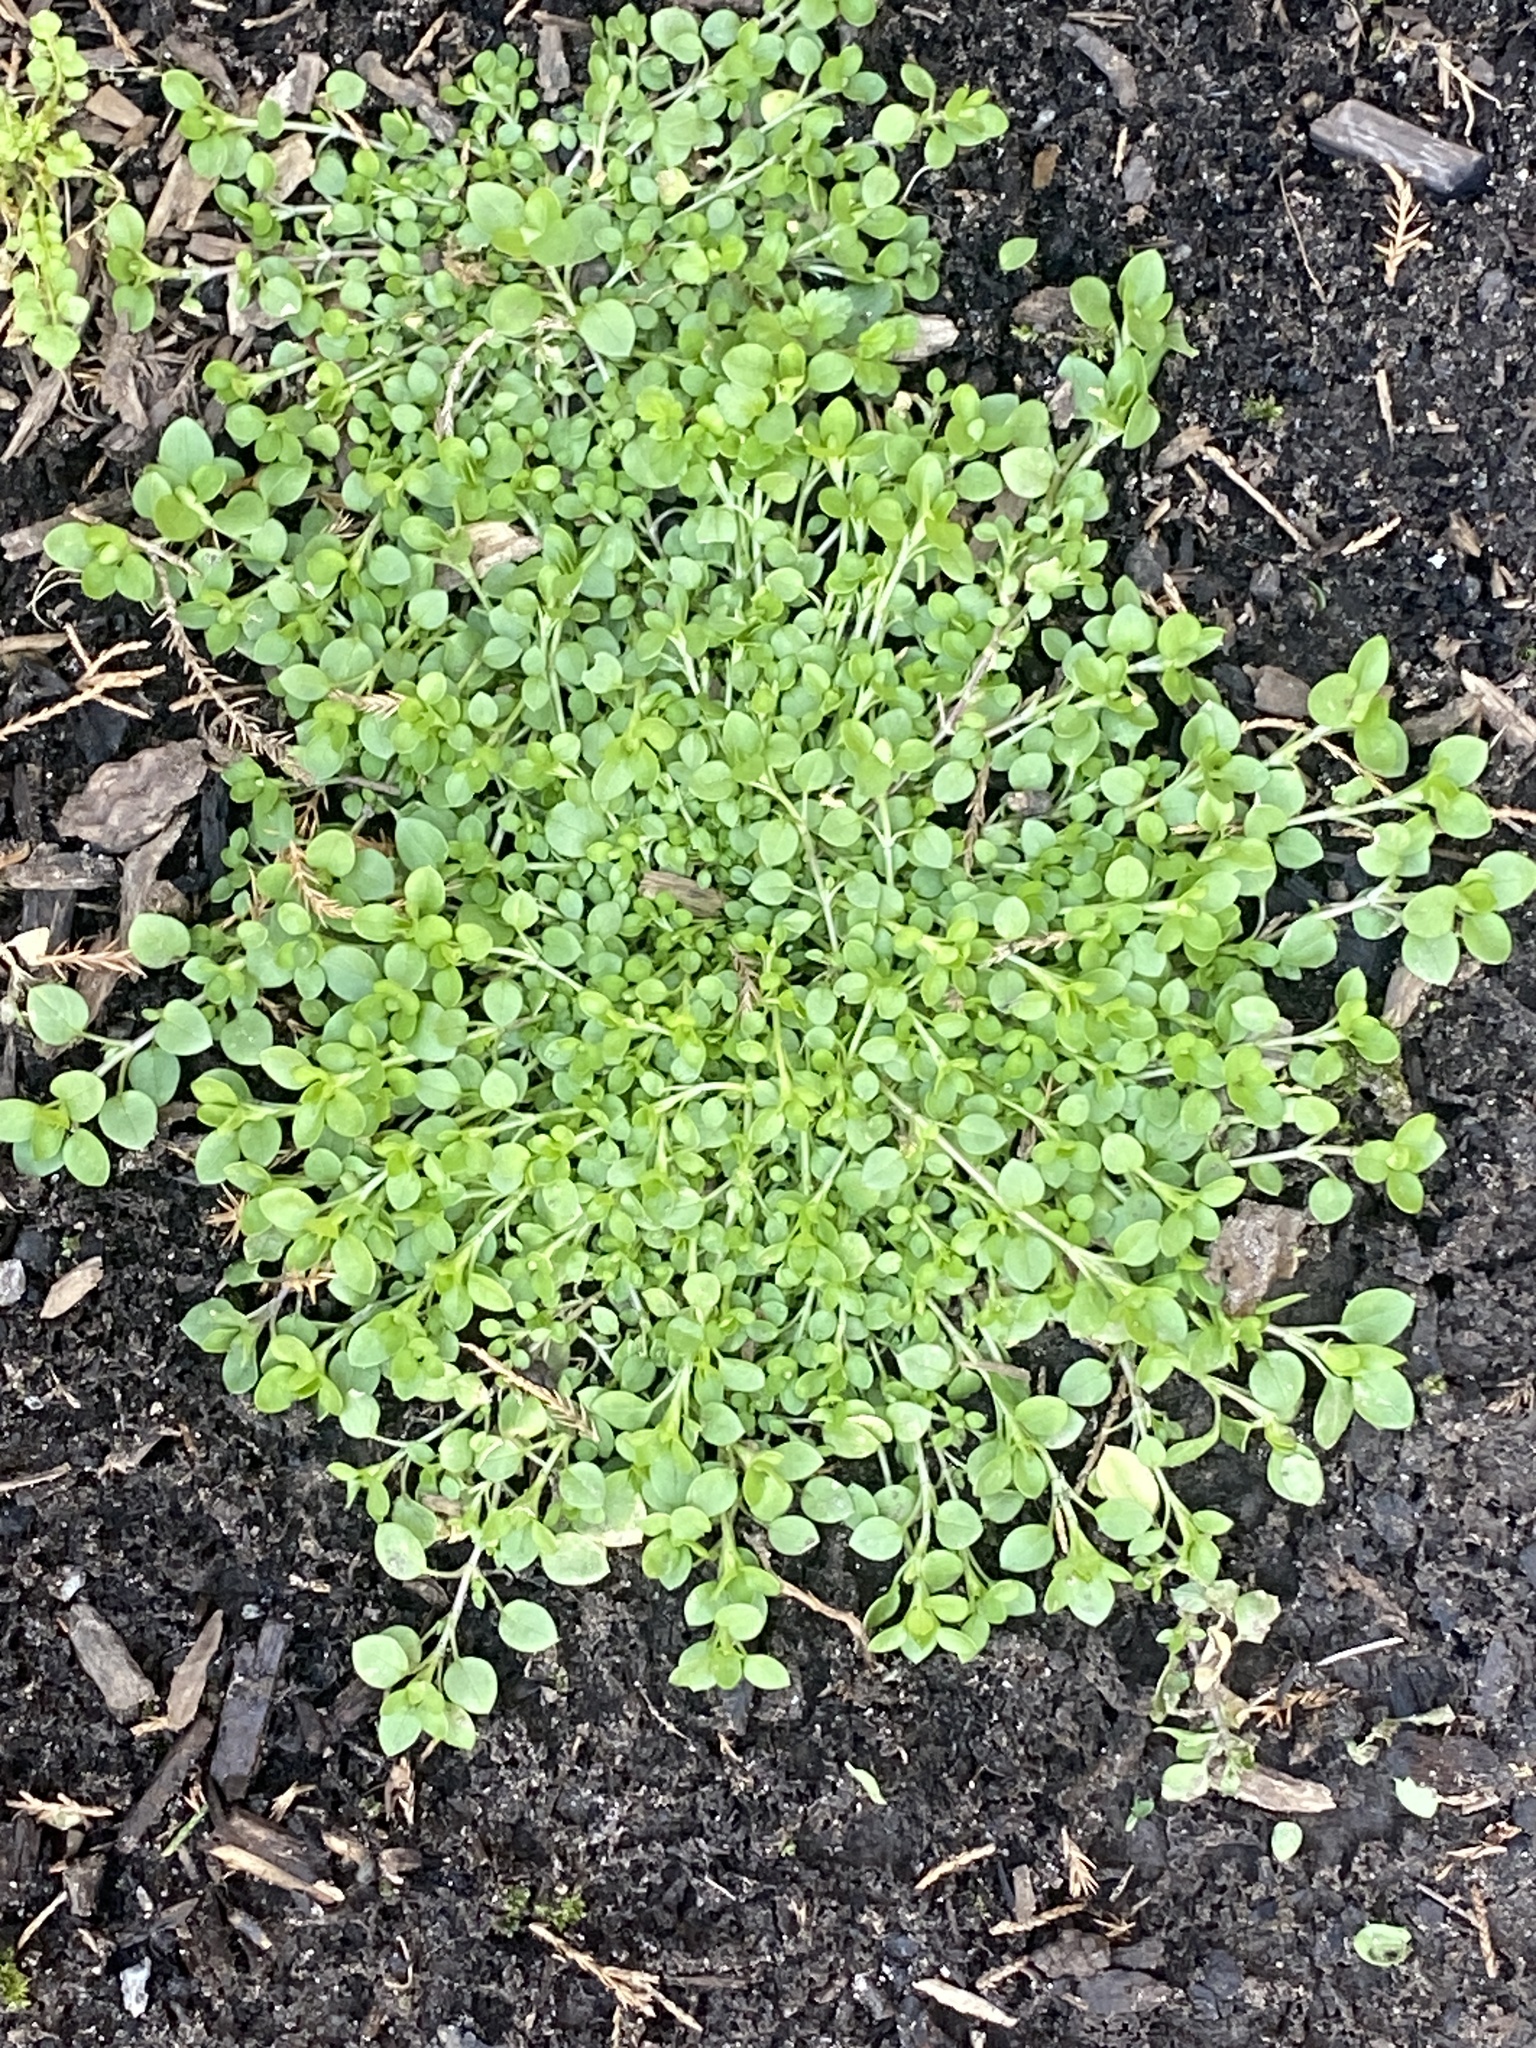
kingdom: Plantae
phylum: Tracheophyta
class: Magnoliopsida
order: Caryophyllales
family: Caryophyllaceae
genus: Stellaria
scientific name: Stellaria media
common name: Common chickweed
